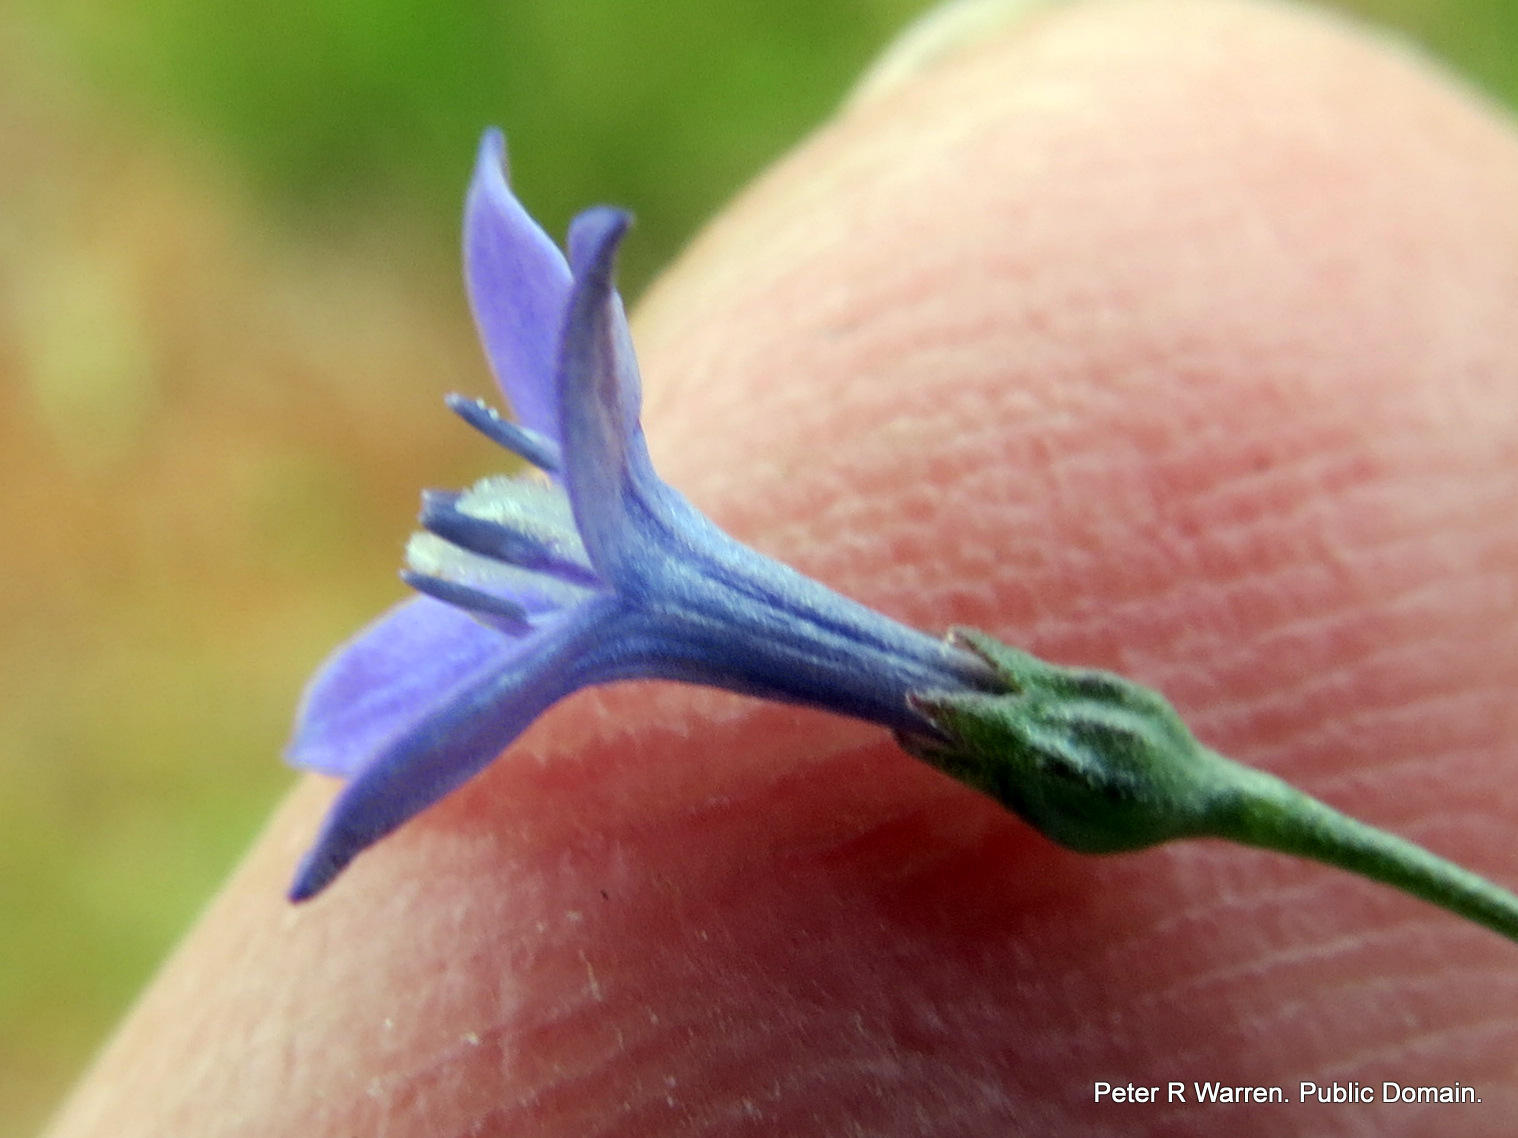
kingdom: Plantae
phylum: Tracheophyta
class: Magnoliopsida
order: Gentianales
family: Rubiaceae
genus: Oldenlandia
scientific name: Oldenlandia affinis
